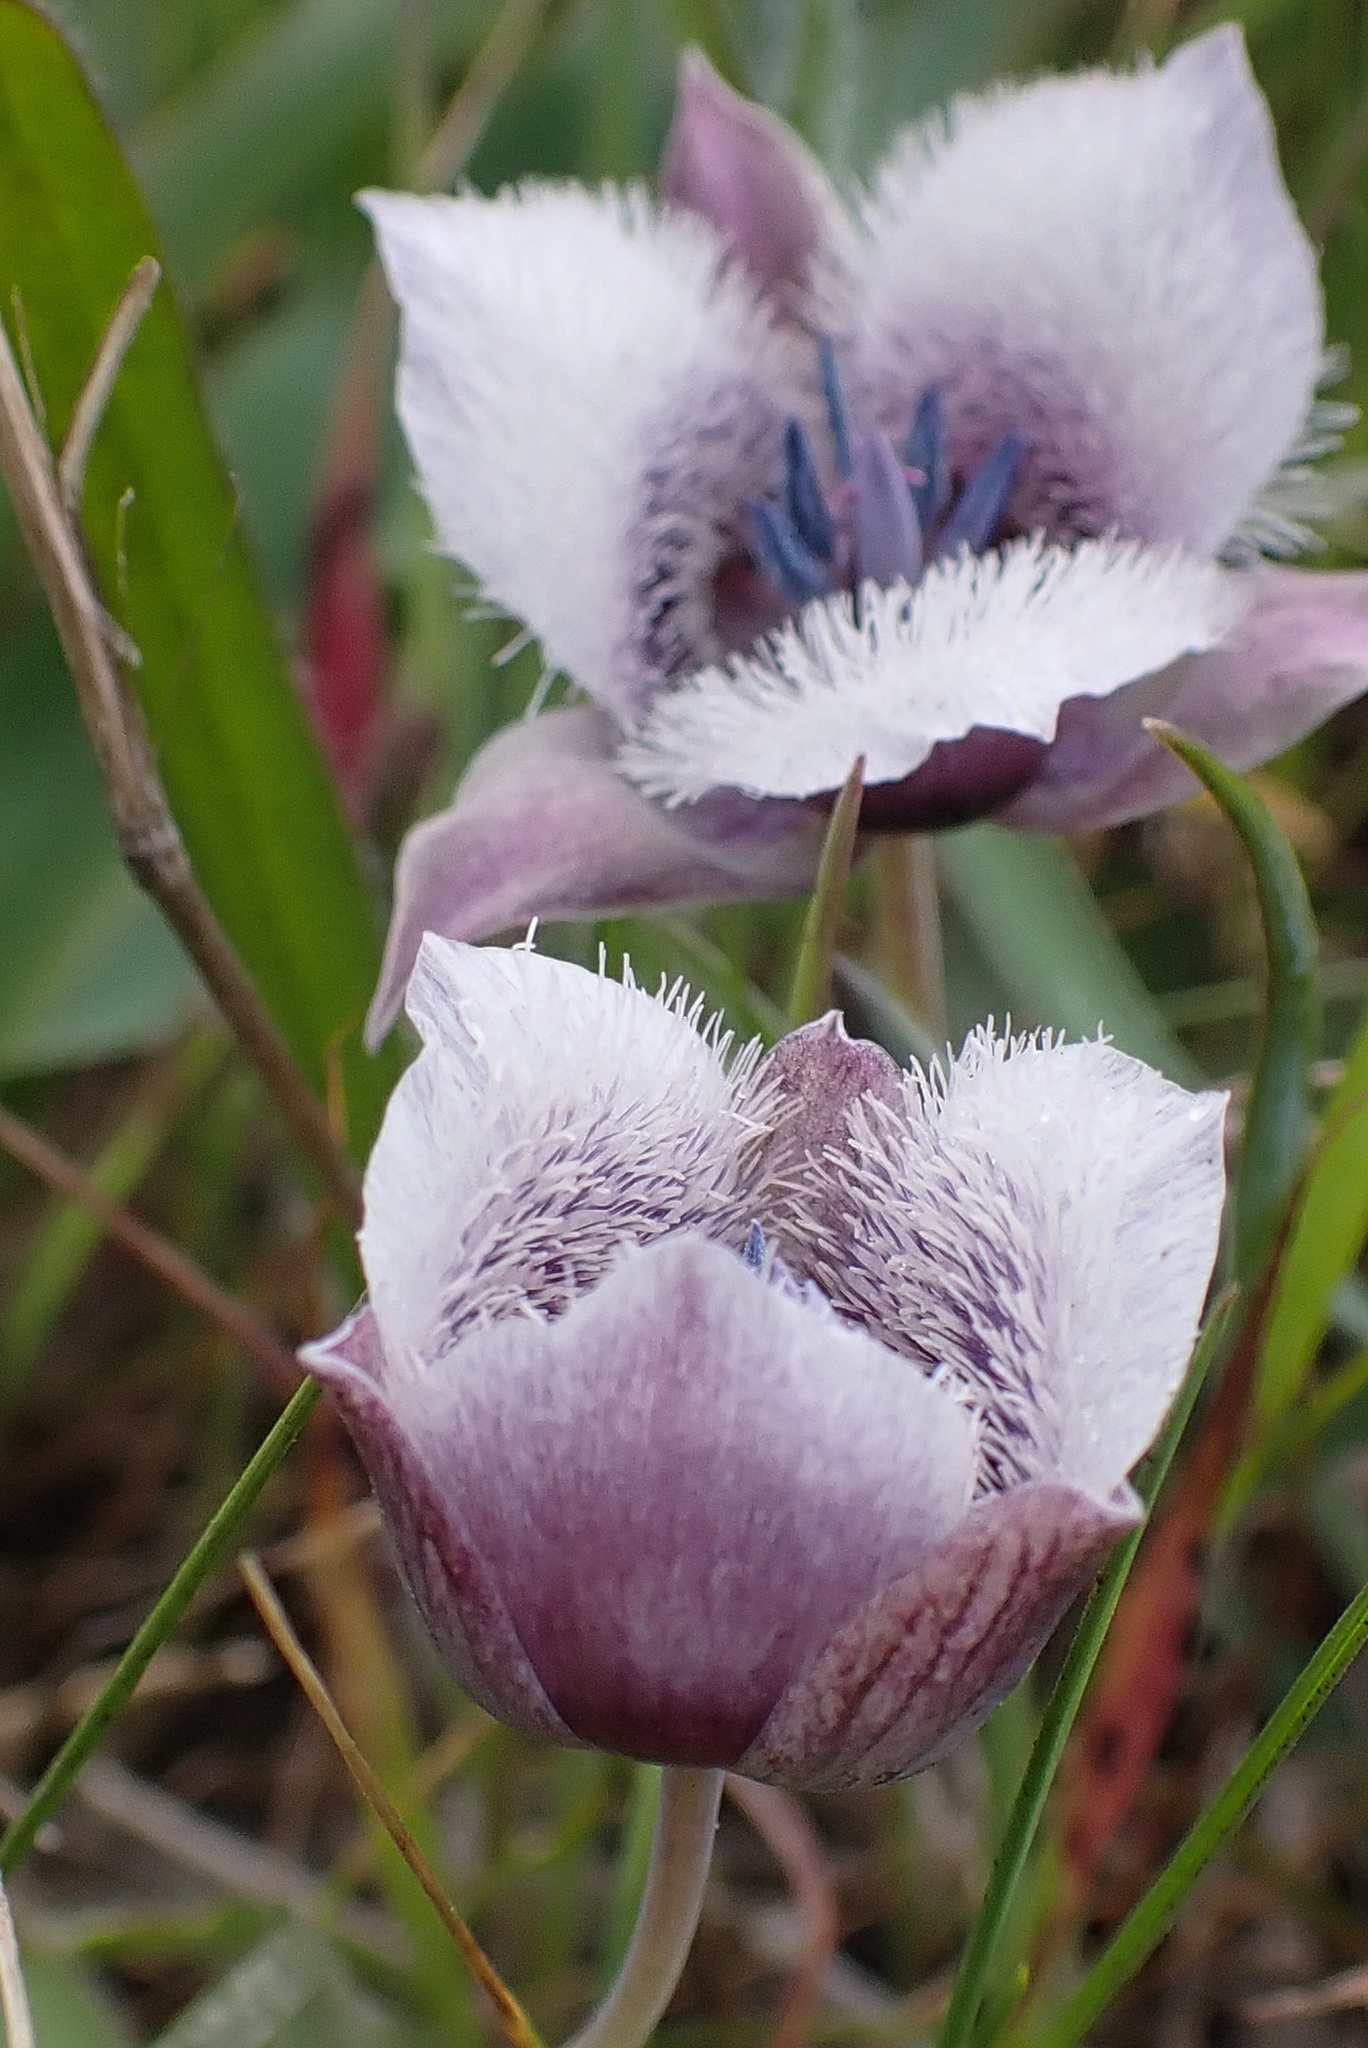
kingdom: Plantae
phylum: Tracheophyta
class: Liliopsida
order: Liliales
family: Liliaceae
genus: Calochortus
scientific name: Calochortus tolmiei
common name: Pussy-ears
